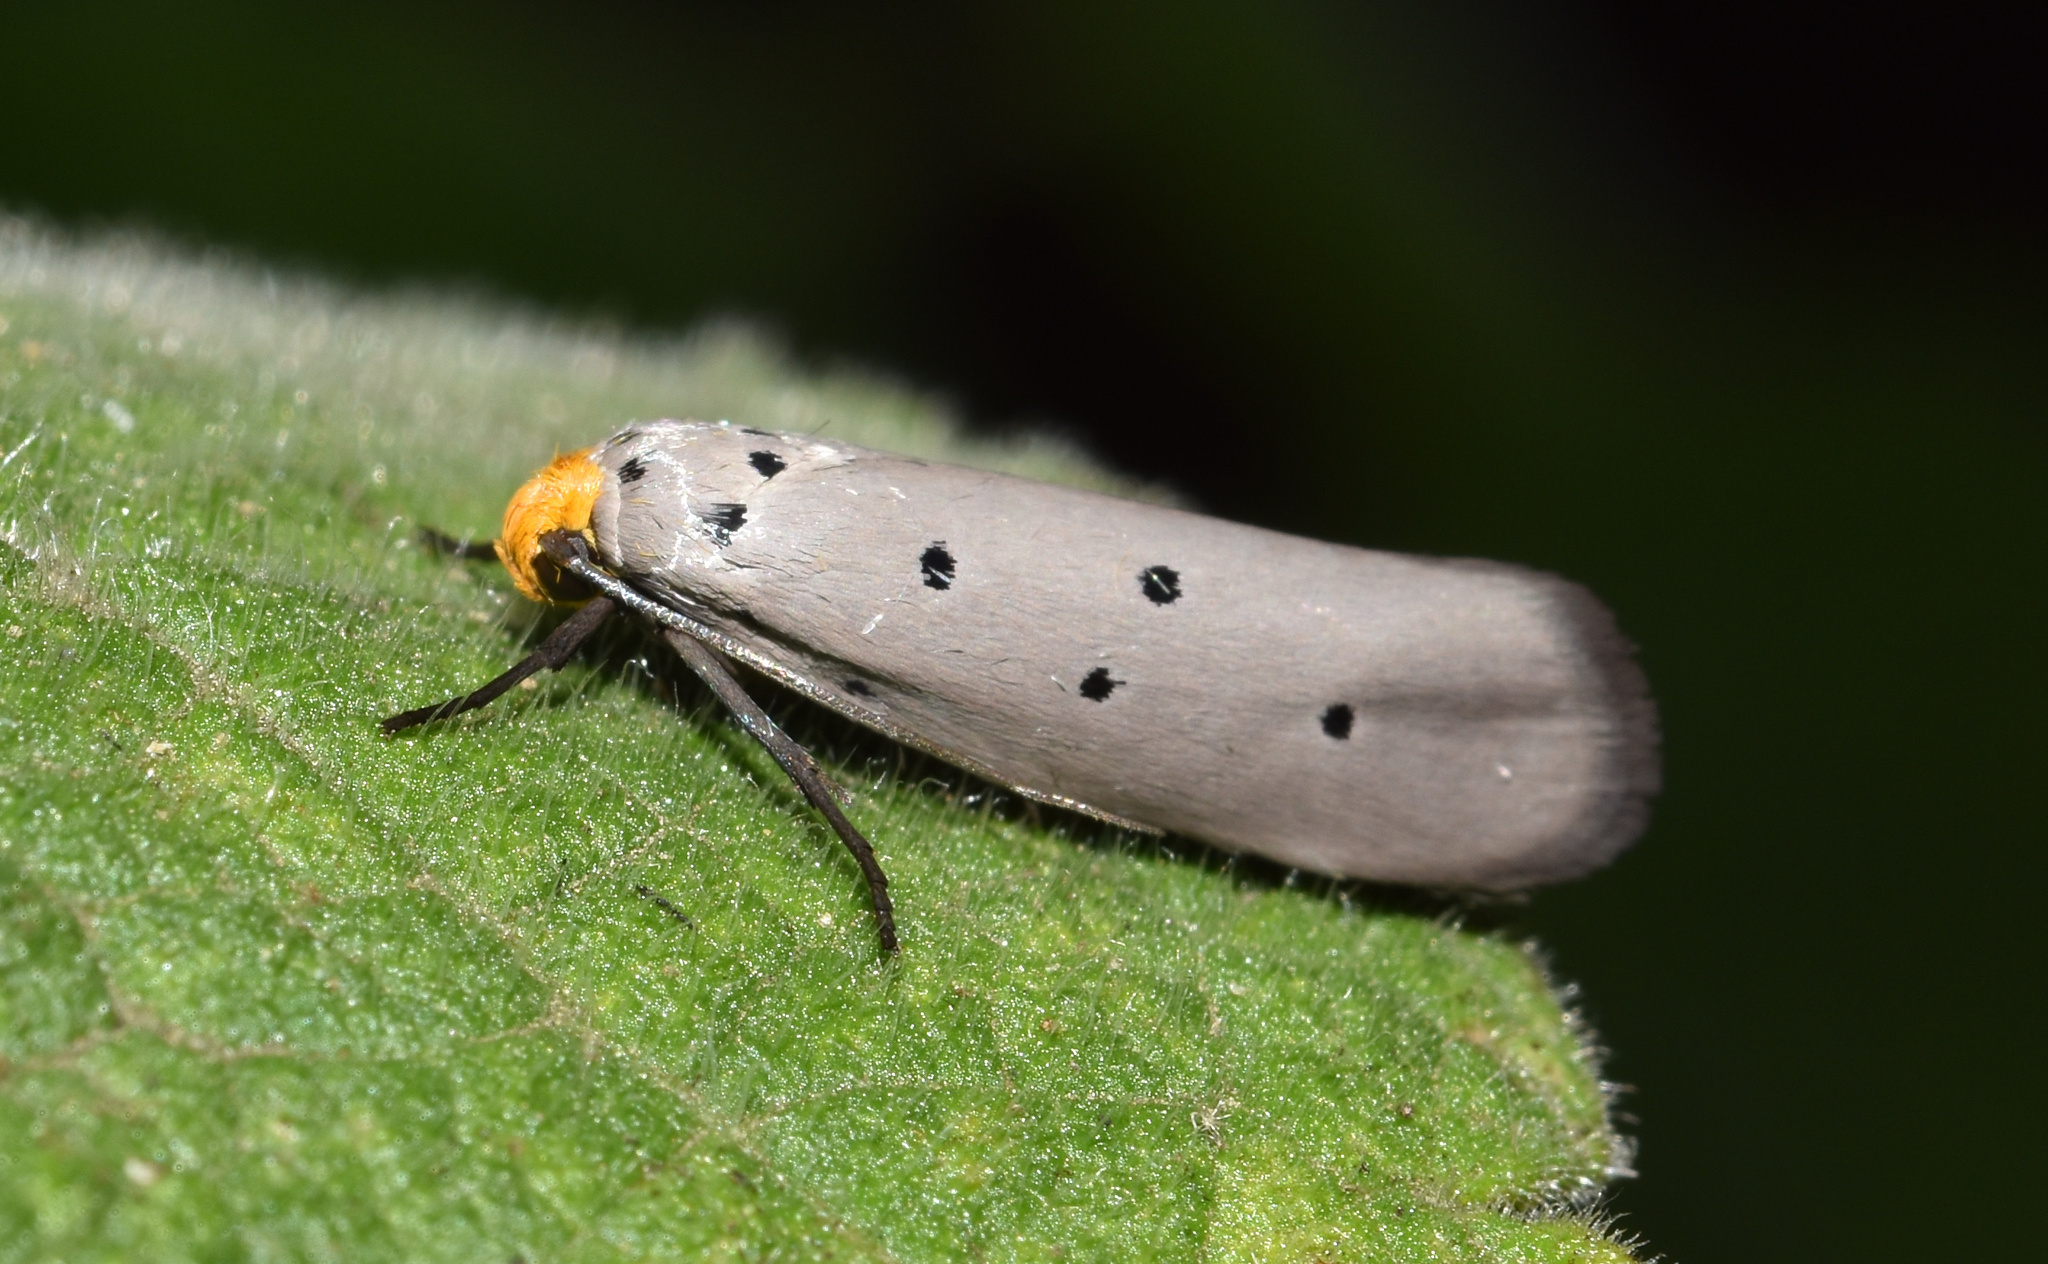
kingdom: Animalia
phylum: Arthropoda
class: Insecta
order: Lepidoptera
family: Ethmiidae
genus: Ethmia
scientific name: Ethmia rhomboidella
